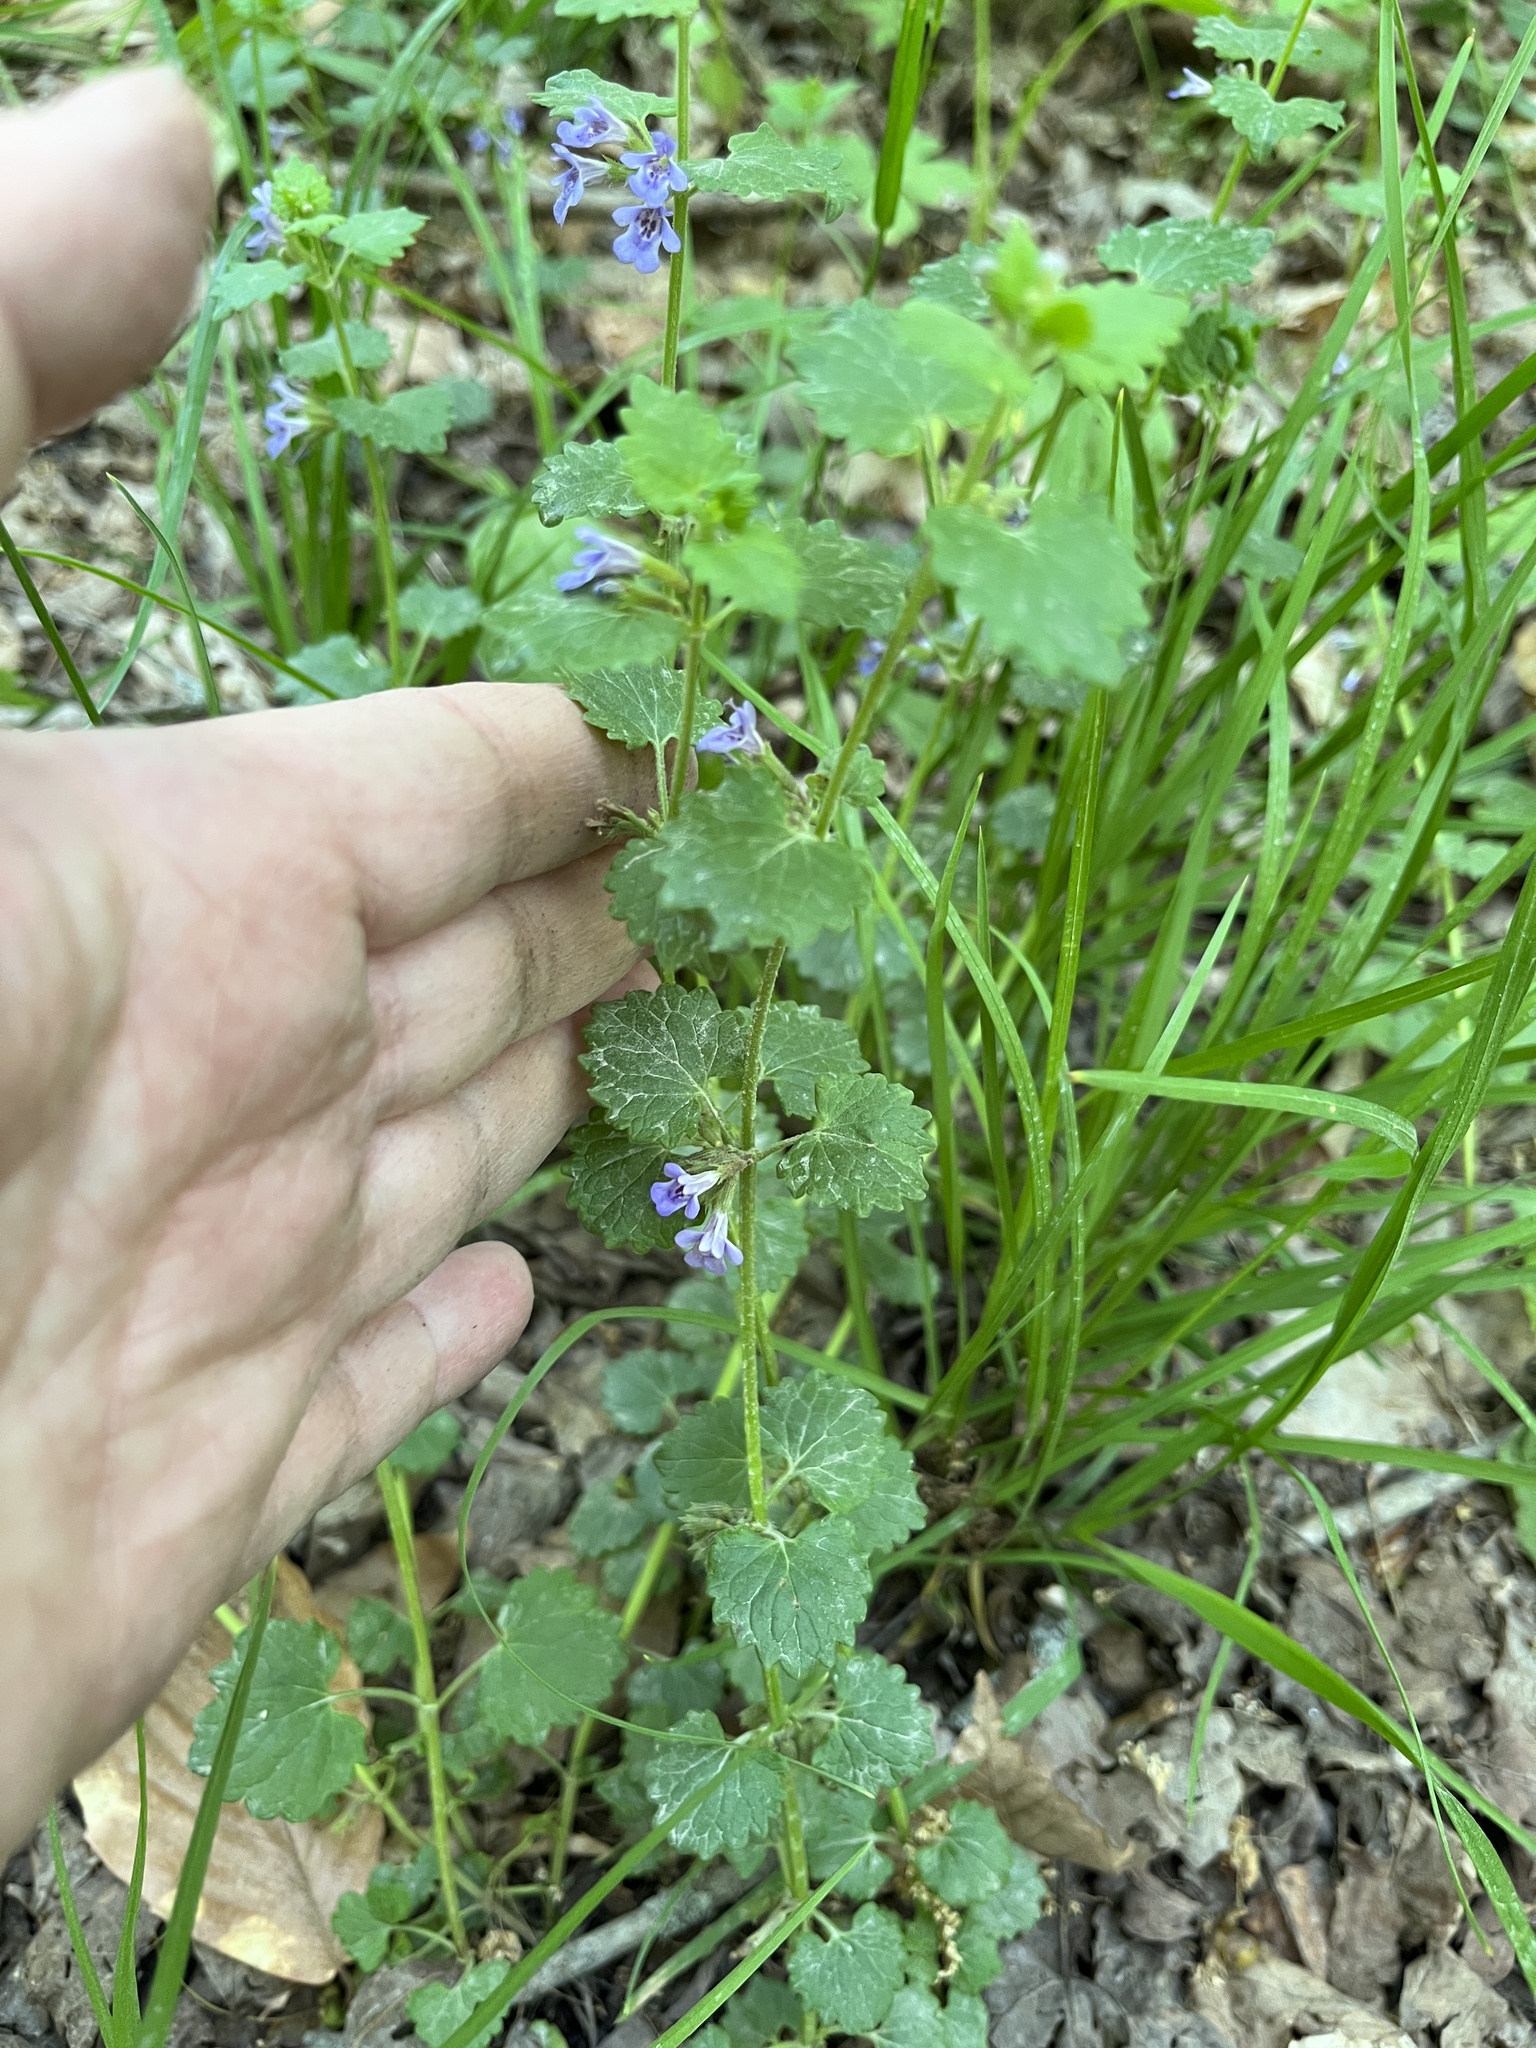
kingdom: Plantae
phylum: Tracheophyta
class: Magnoliopsida
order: Lamiales
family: Lamiaceae
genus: Glechoma
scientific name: Glechoma hederacea
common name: Ground ivy
